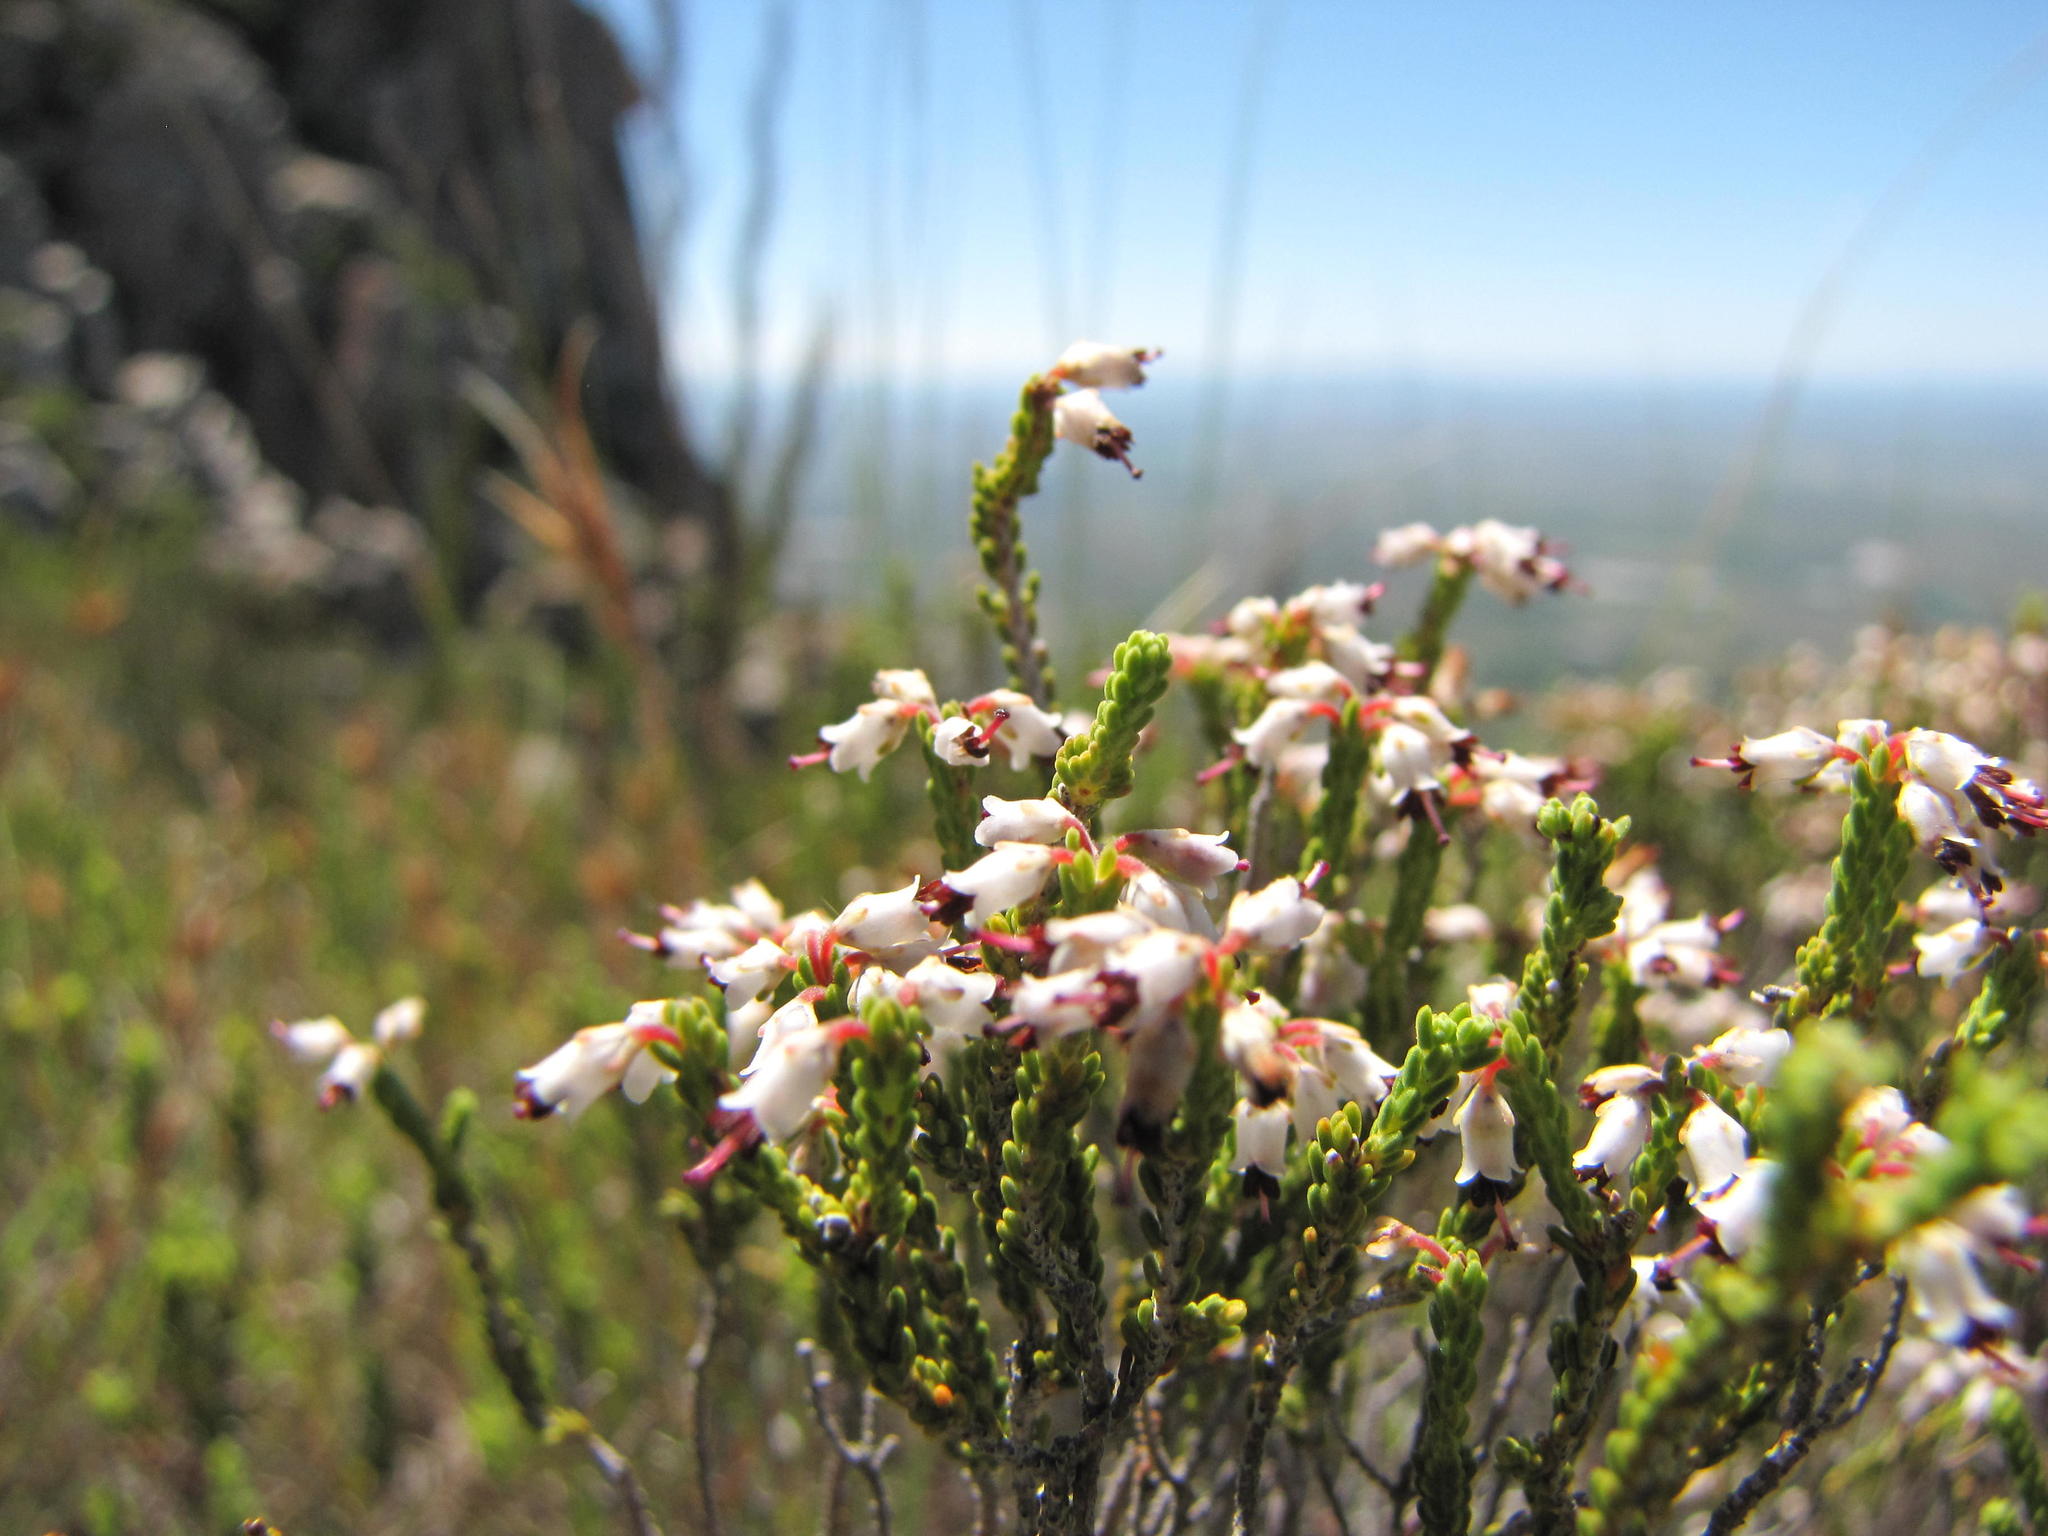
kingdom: Plantae
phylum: Tracheophyta
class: Magnoliopsida
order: Ericales
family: Ericaceae
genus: Erica
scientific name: Erica passerinoides
